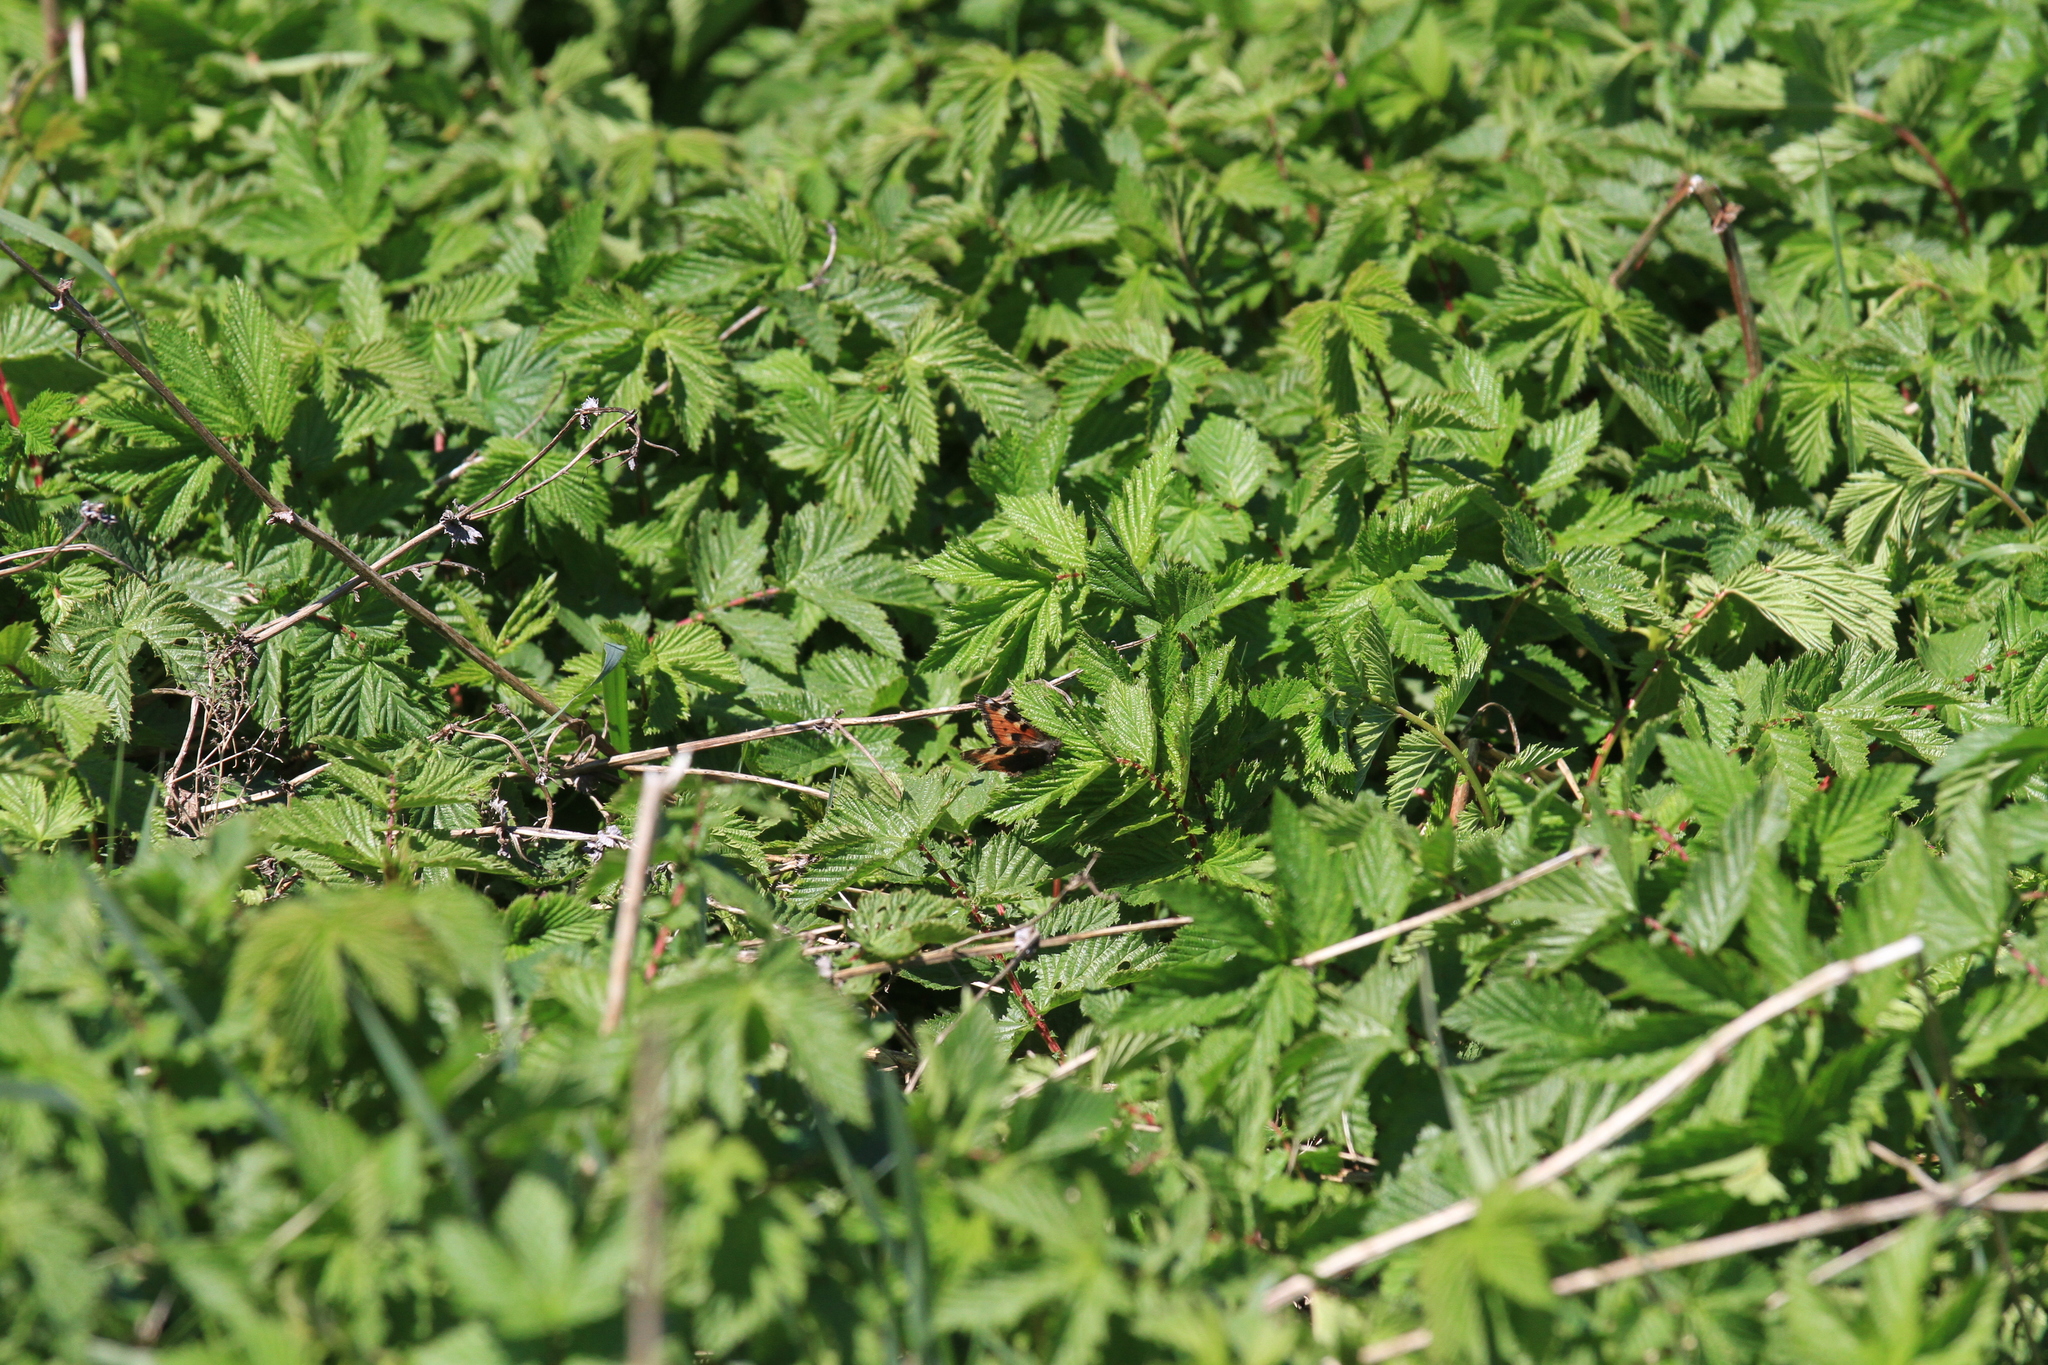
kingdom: Animalia
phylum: Arthropoda
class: Insecta
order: Lepidoptera
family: Nymphalidae
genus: Aglais
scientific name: Aglais urticae
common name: Small tortoiseshell
